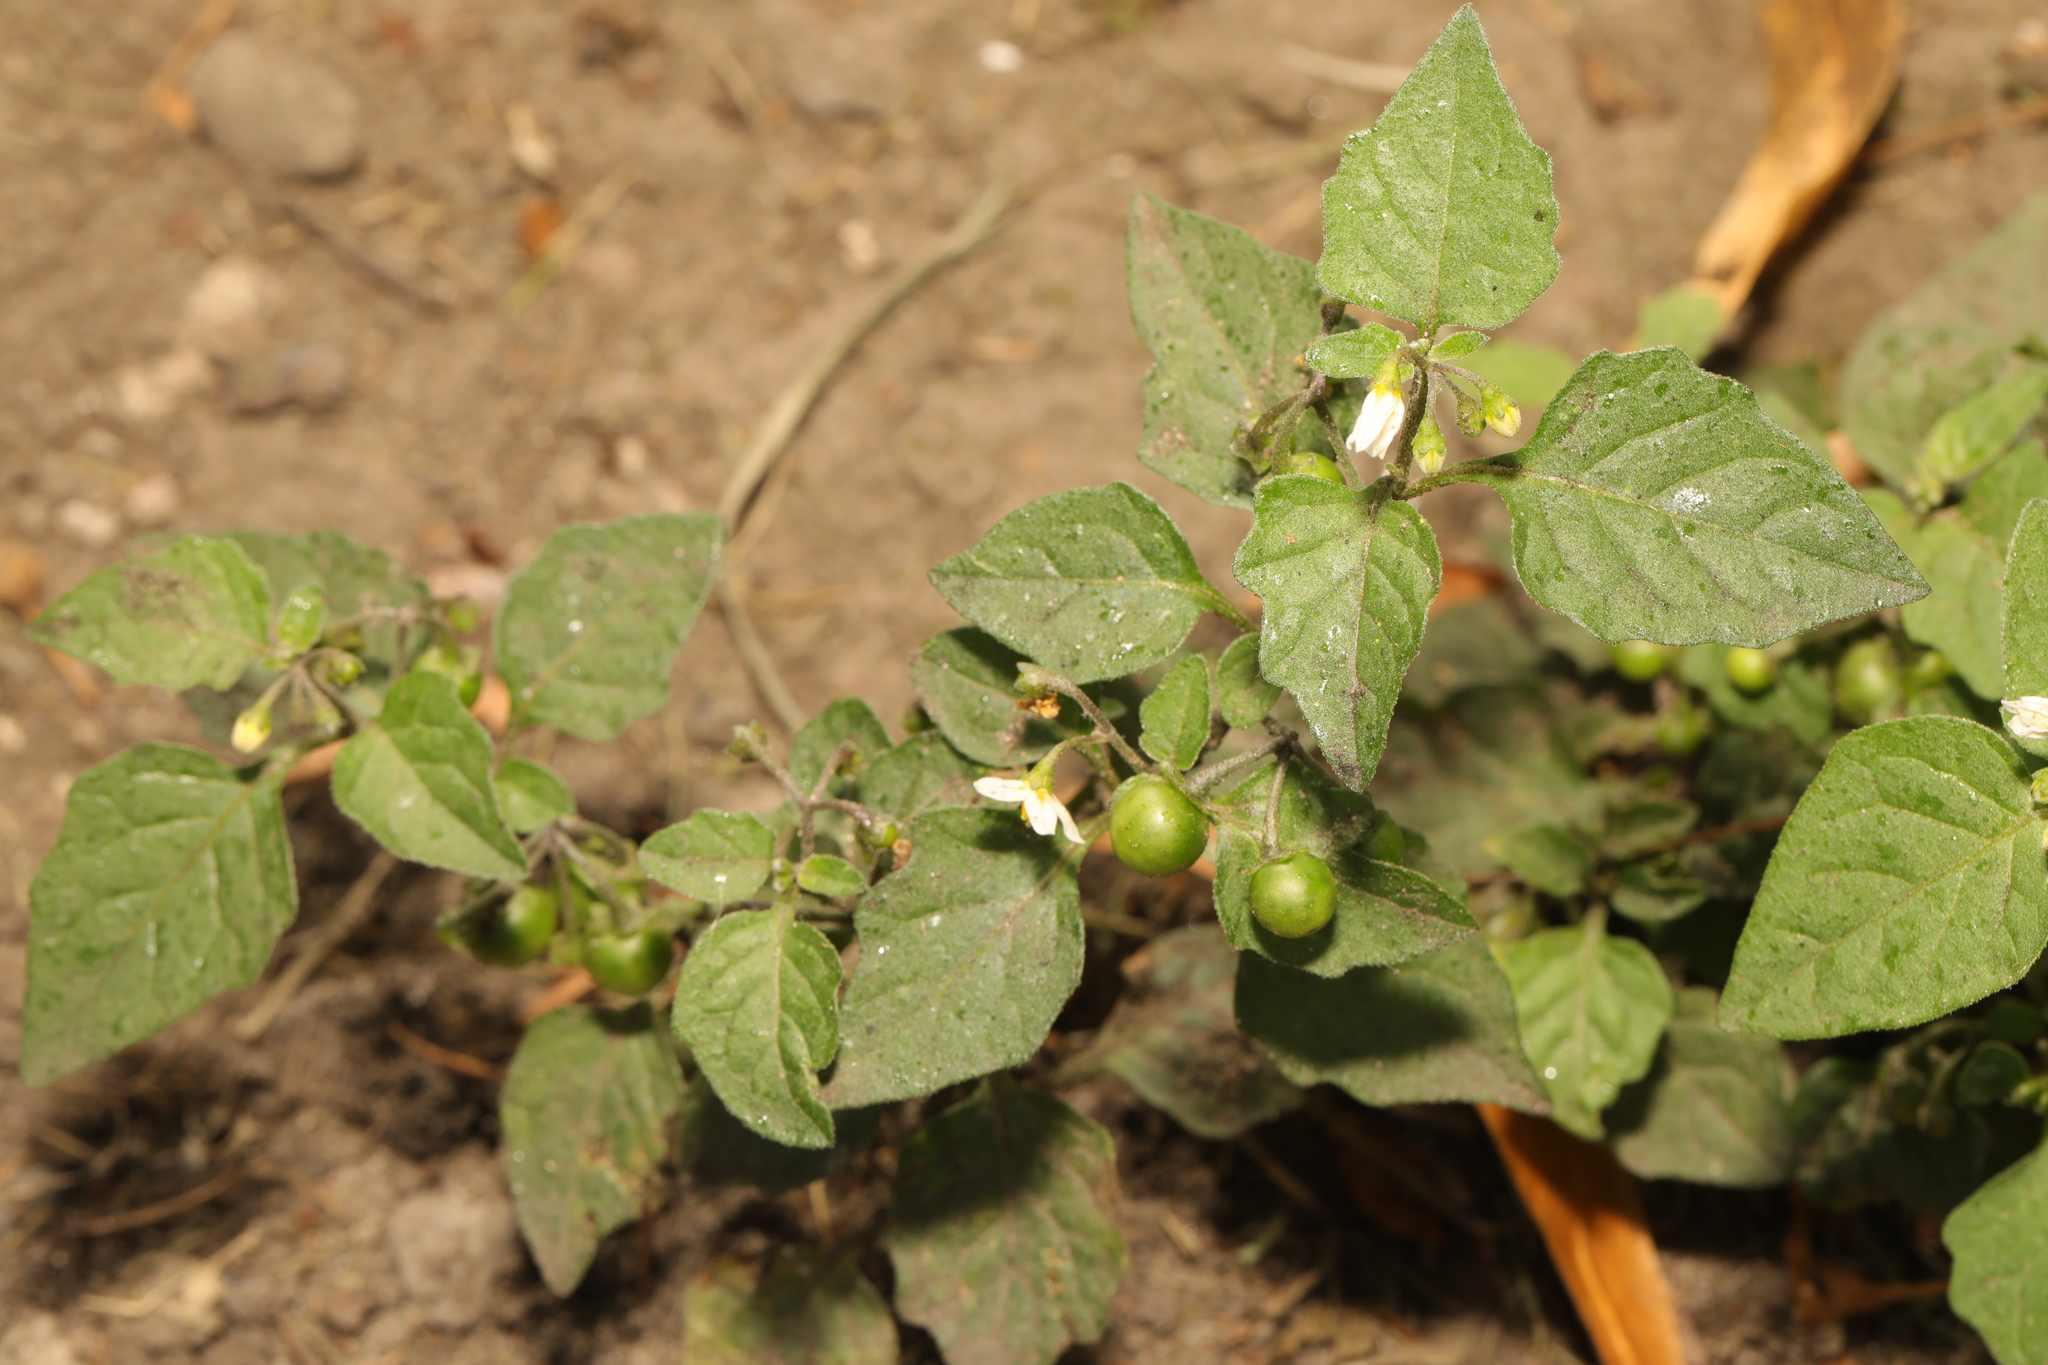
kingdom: Plantae
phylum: Tracheophyta
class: Magnoliopsida
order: Solanales
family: Solanaceae
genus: Solanum
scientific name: Solanum nigrum
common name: Black nightshade
